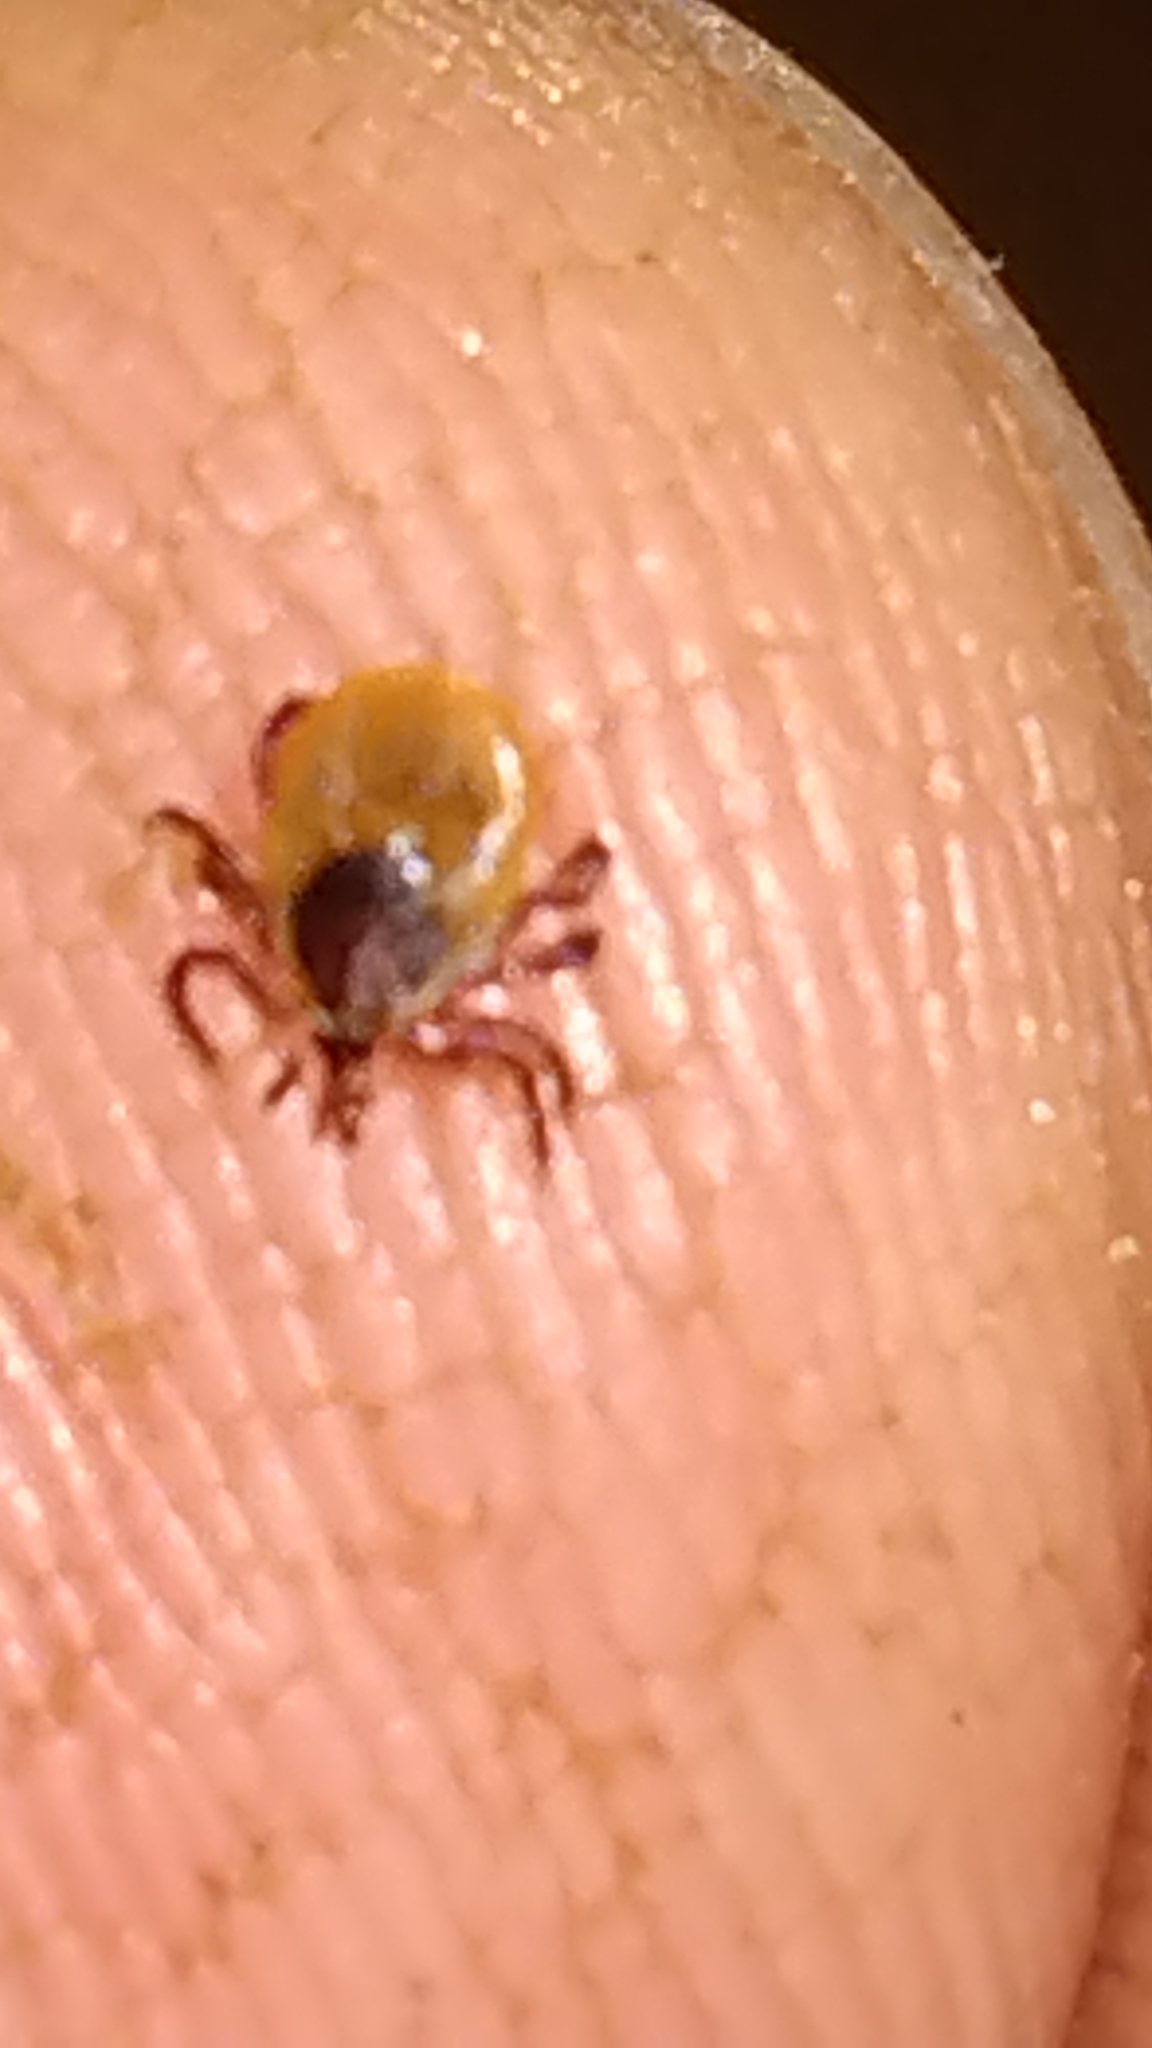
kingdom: Animalia
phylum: Arthropoda
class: Arachnida
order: Ixodida
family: Ixodidae
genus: Ixodes
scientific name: Ixodes scapularis
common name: Black legged tick
